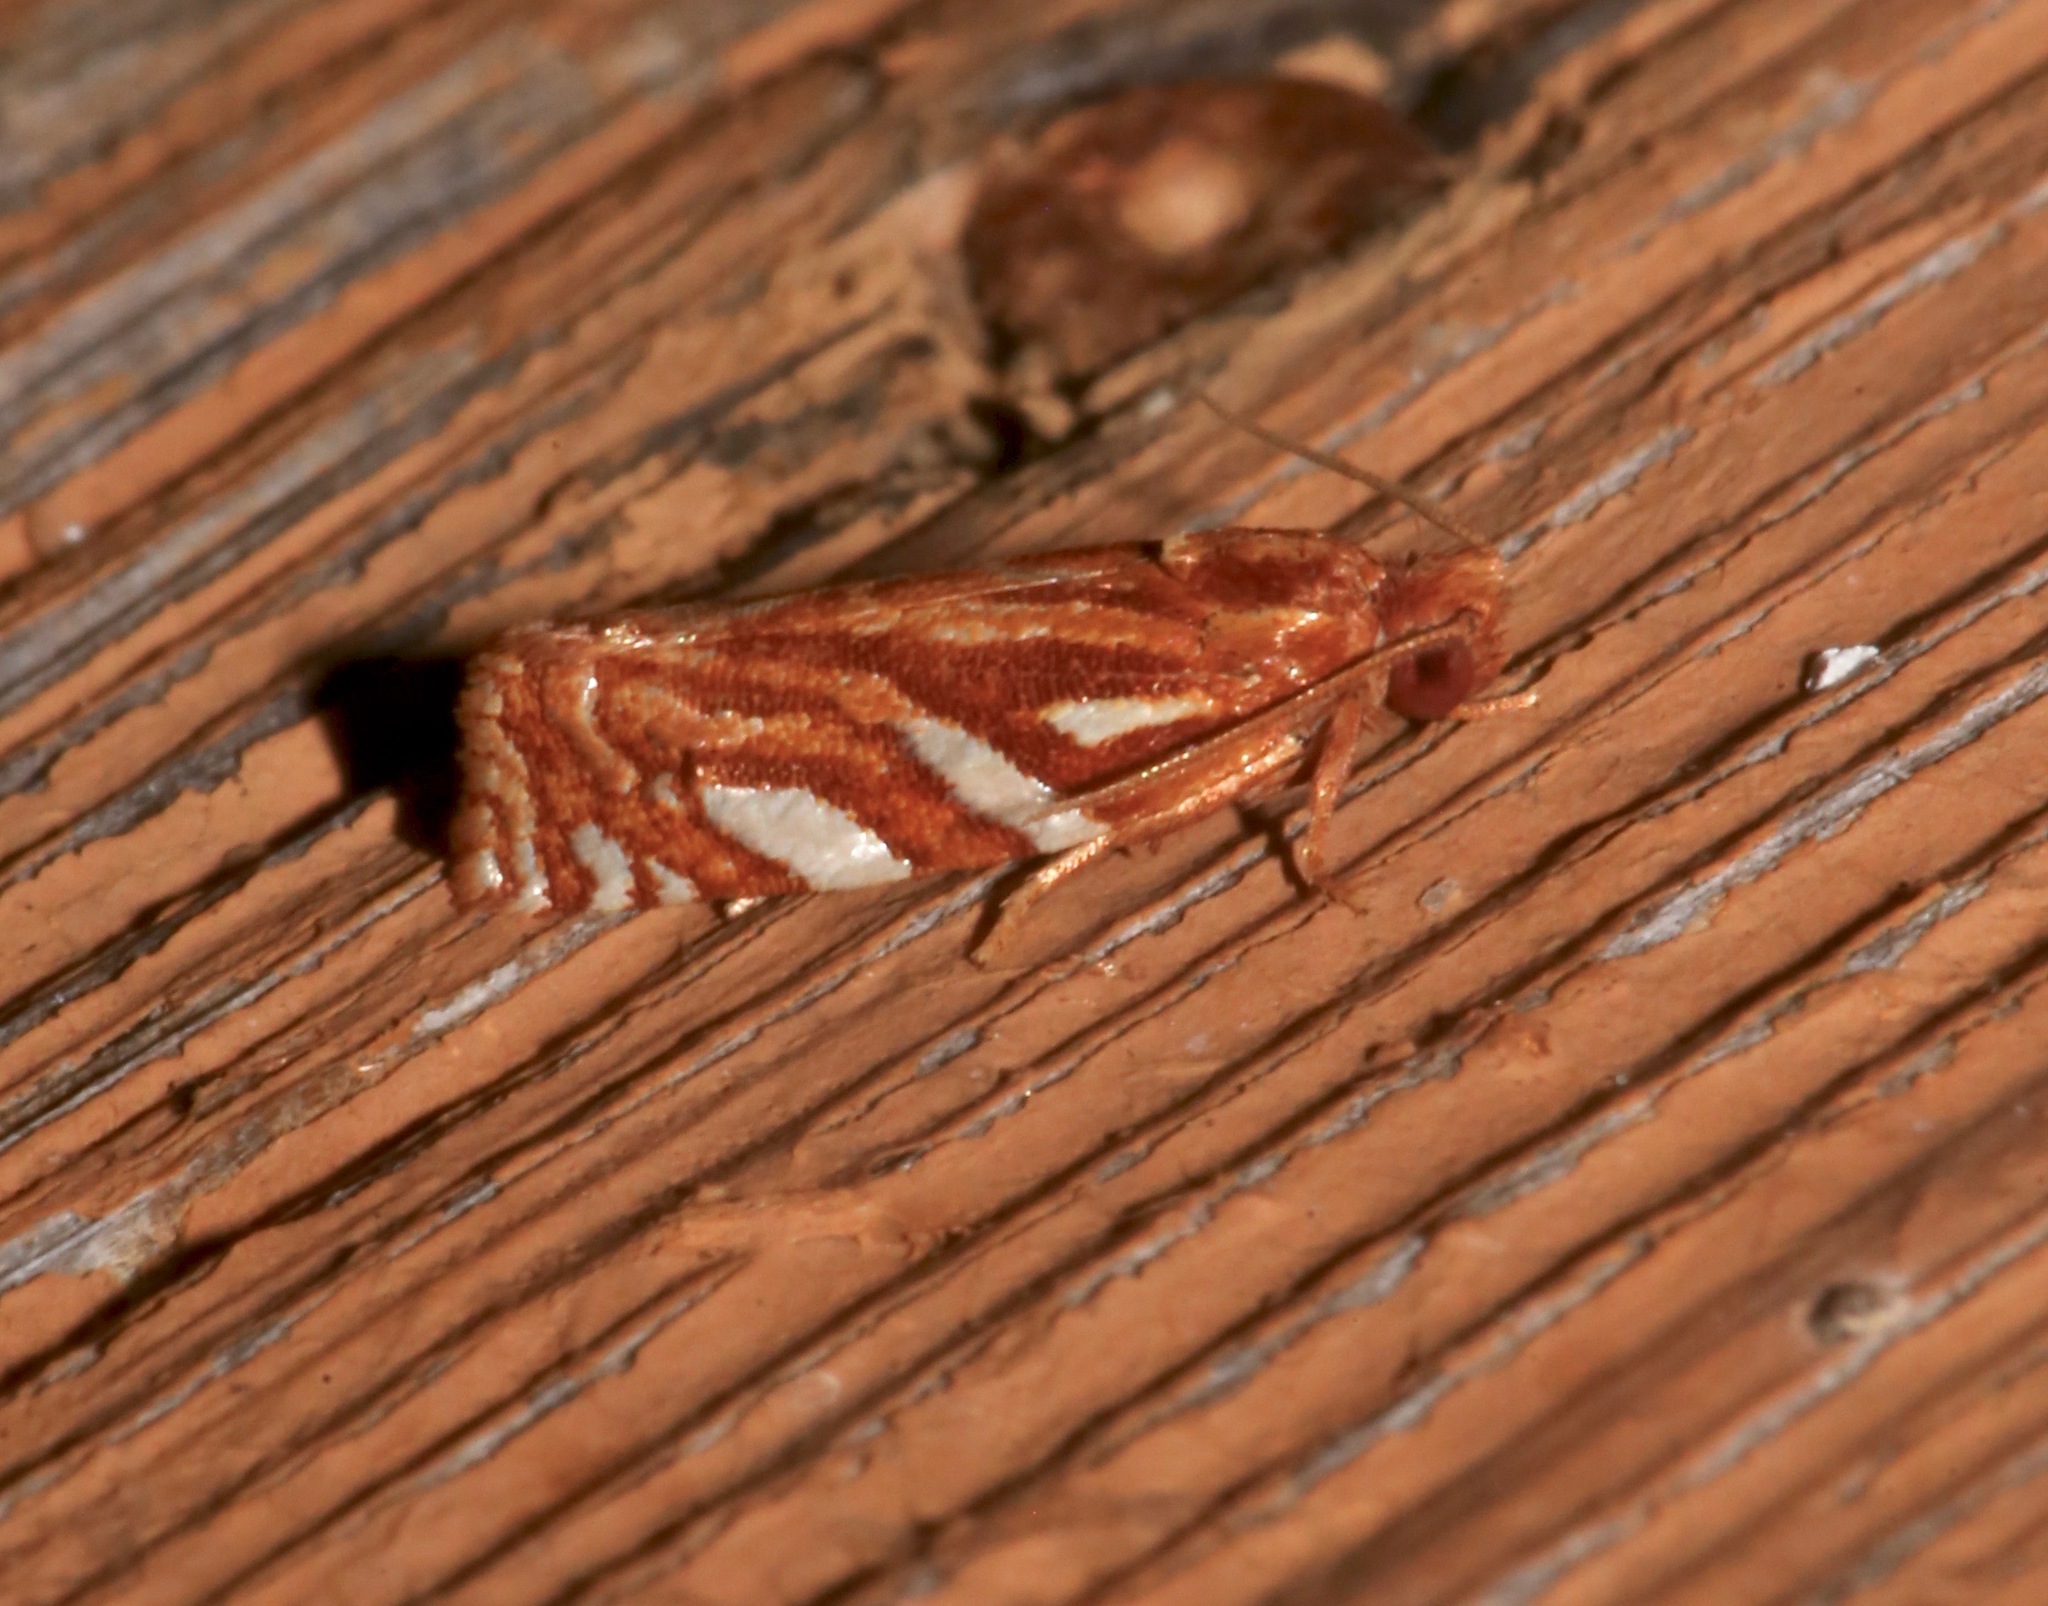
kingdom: Animalia
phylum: Arthropoda
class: Insecta
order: Lepidoptera
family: Tortricidae
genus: Choristoneura
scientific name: Choristoneura argentifasciata
